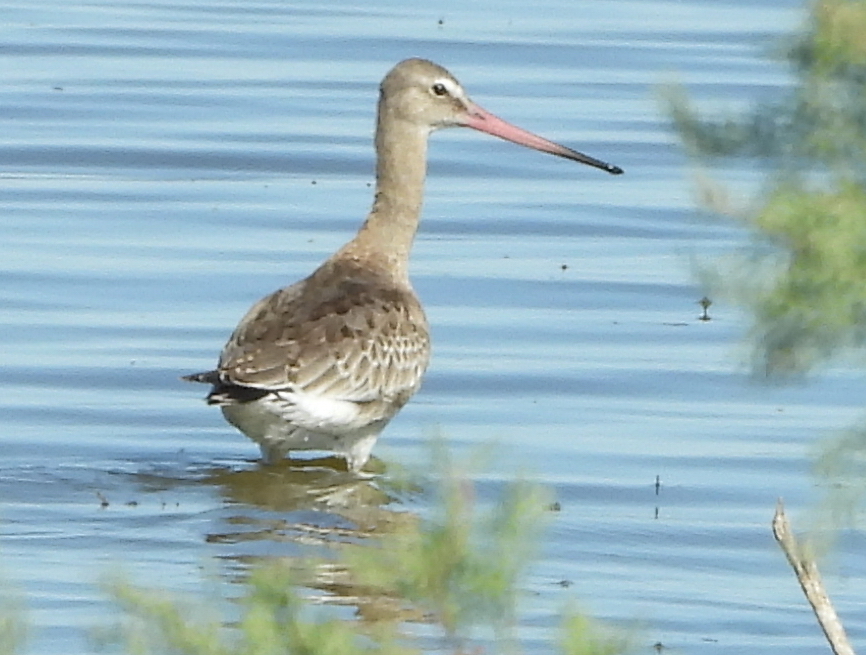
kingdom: Animalia
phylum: Chordata
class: Aves
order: Charadriiformes
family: Scolopacidae
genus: Limosa
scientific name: Limosa limosa
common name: Black-tailed godwit
